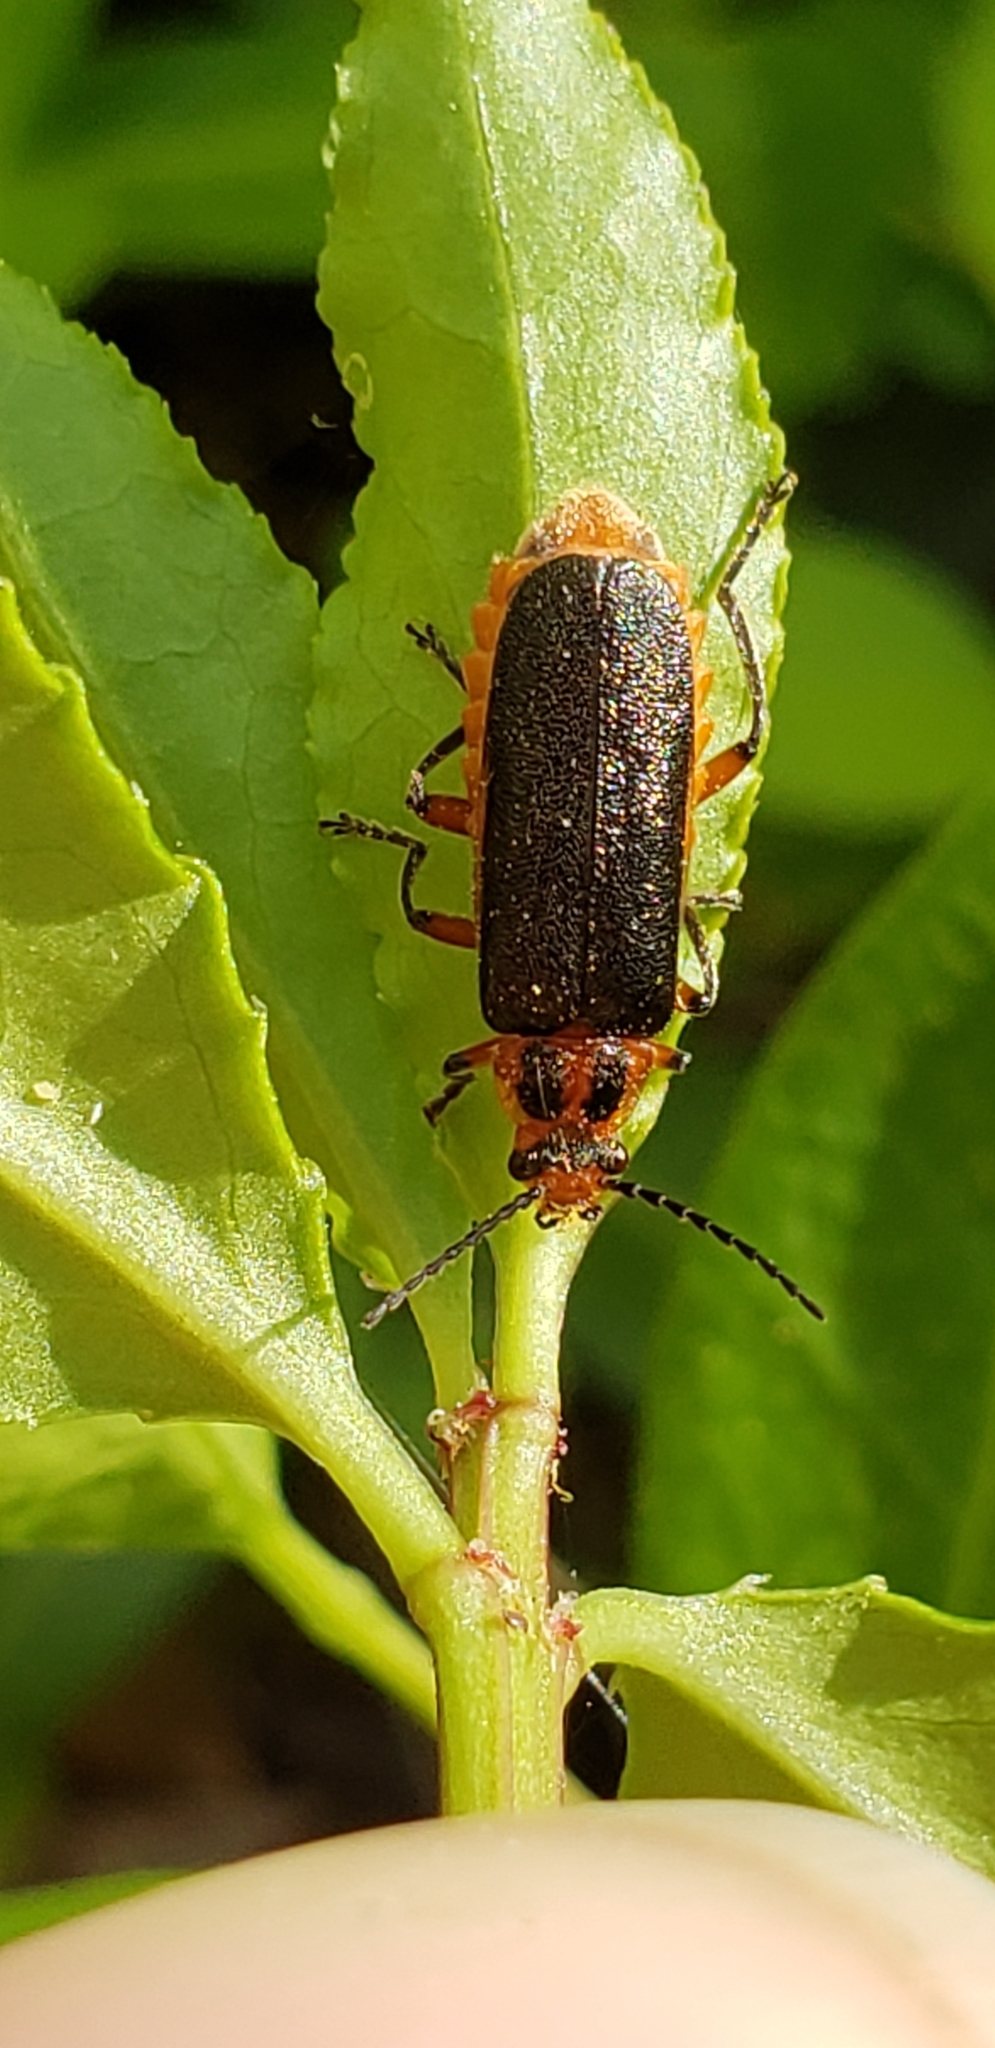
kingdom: Animalia
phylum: Arthropoda
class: Insecta
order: Coleoptera
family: Cantharidae
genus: Atalantycha
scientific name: Atalantycha bilineata
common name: Two-lined leatherwing
